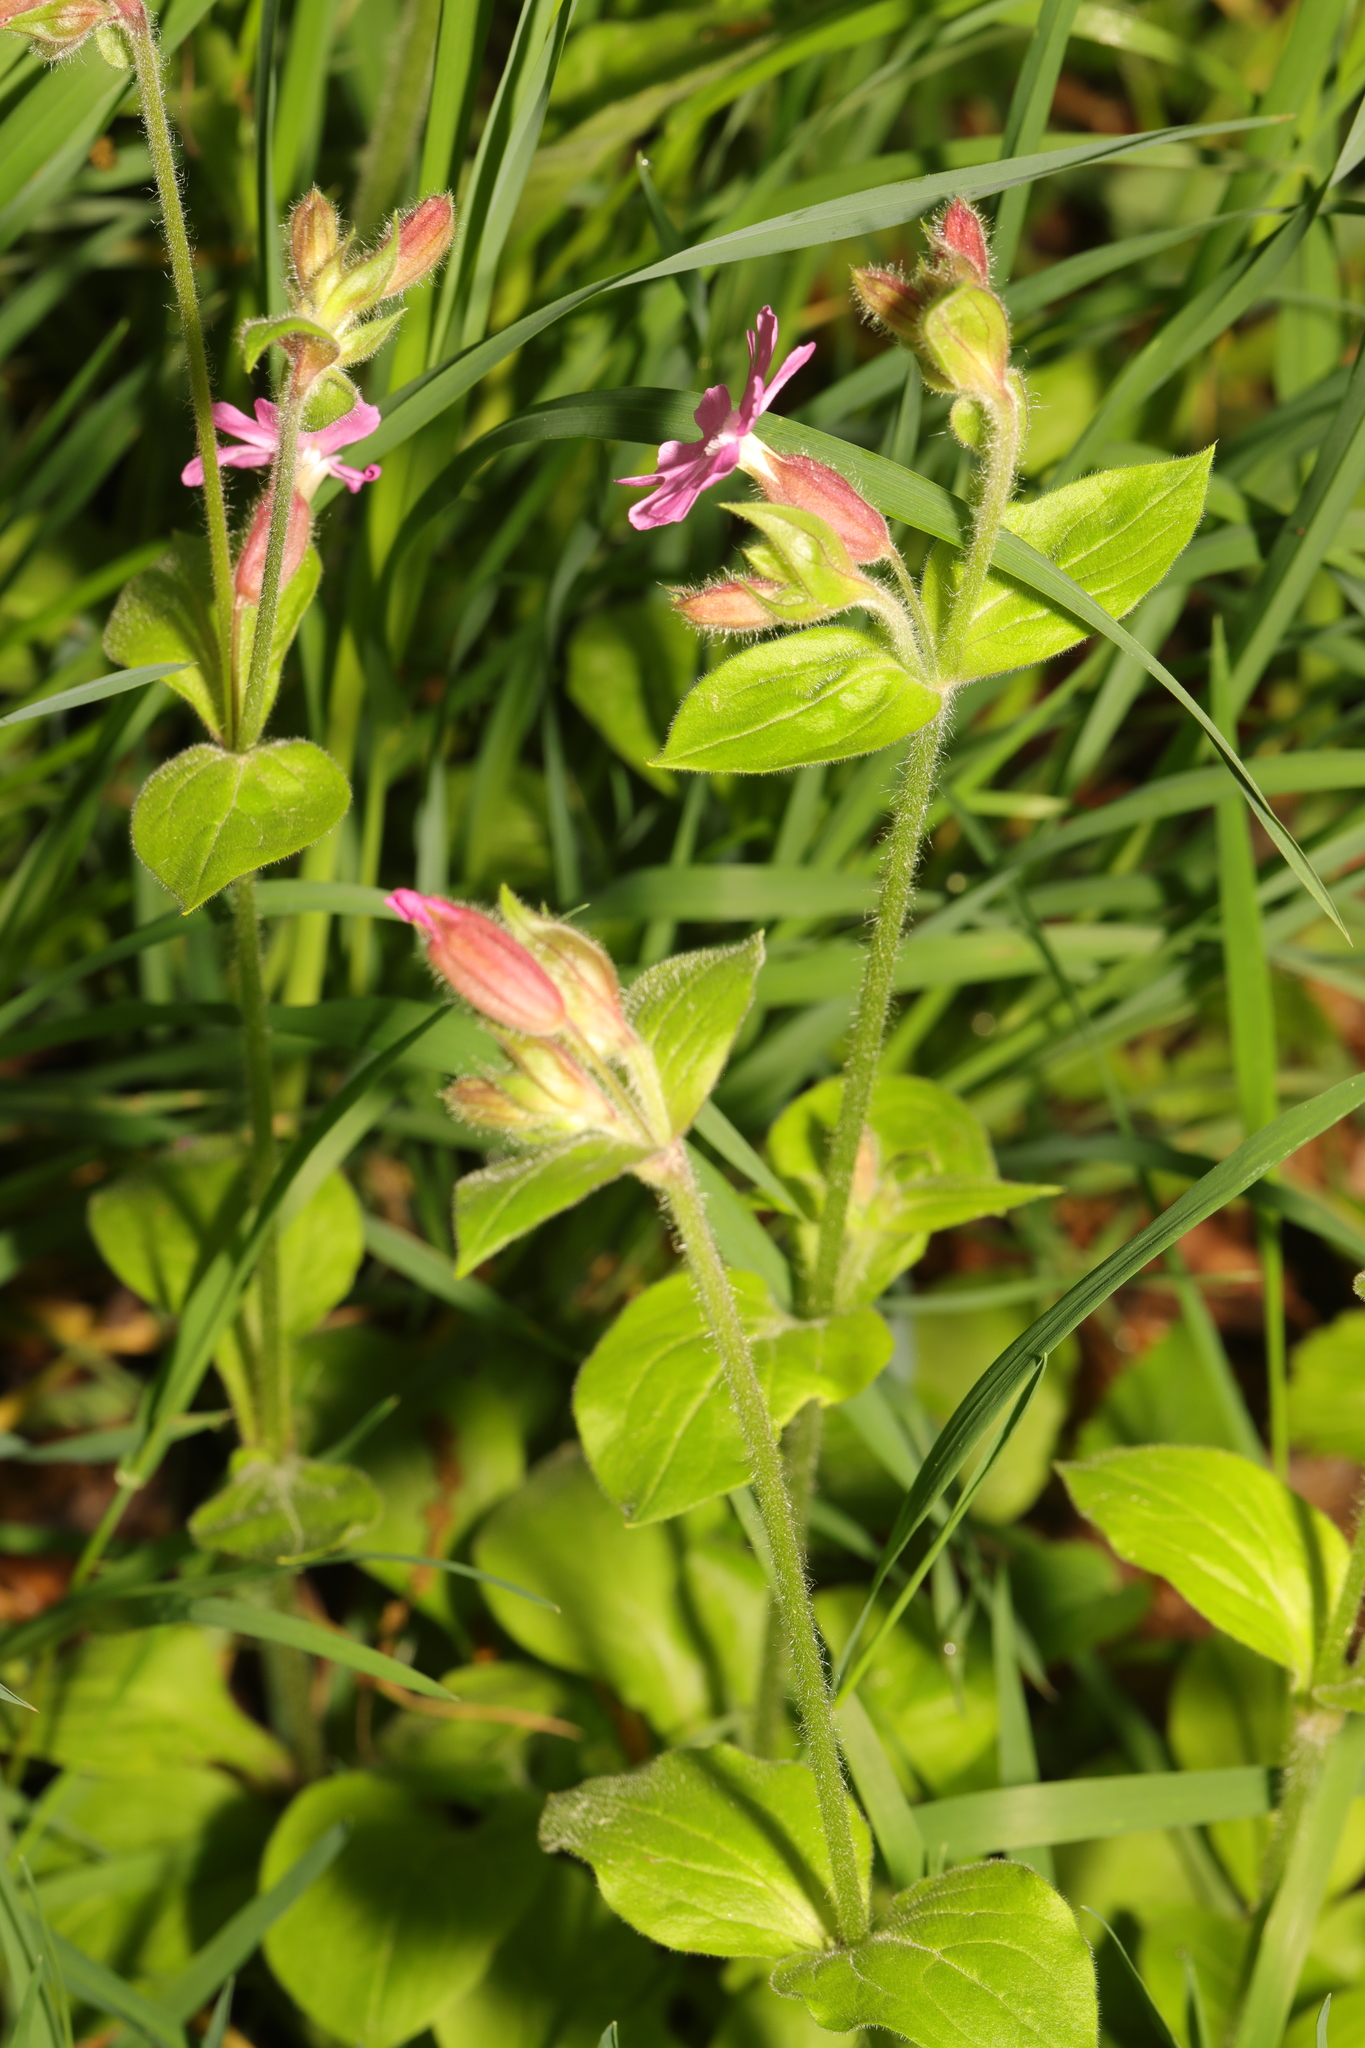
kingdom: Plantae
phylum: Tracheophyta
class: Magnoliopsida
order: Caryophyllales
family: Caryophyllaceae
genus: Silene
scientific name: Silene dioica
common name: Red campion
